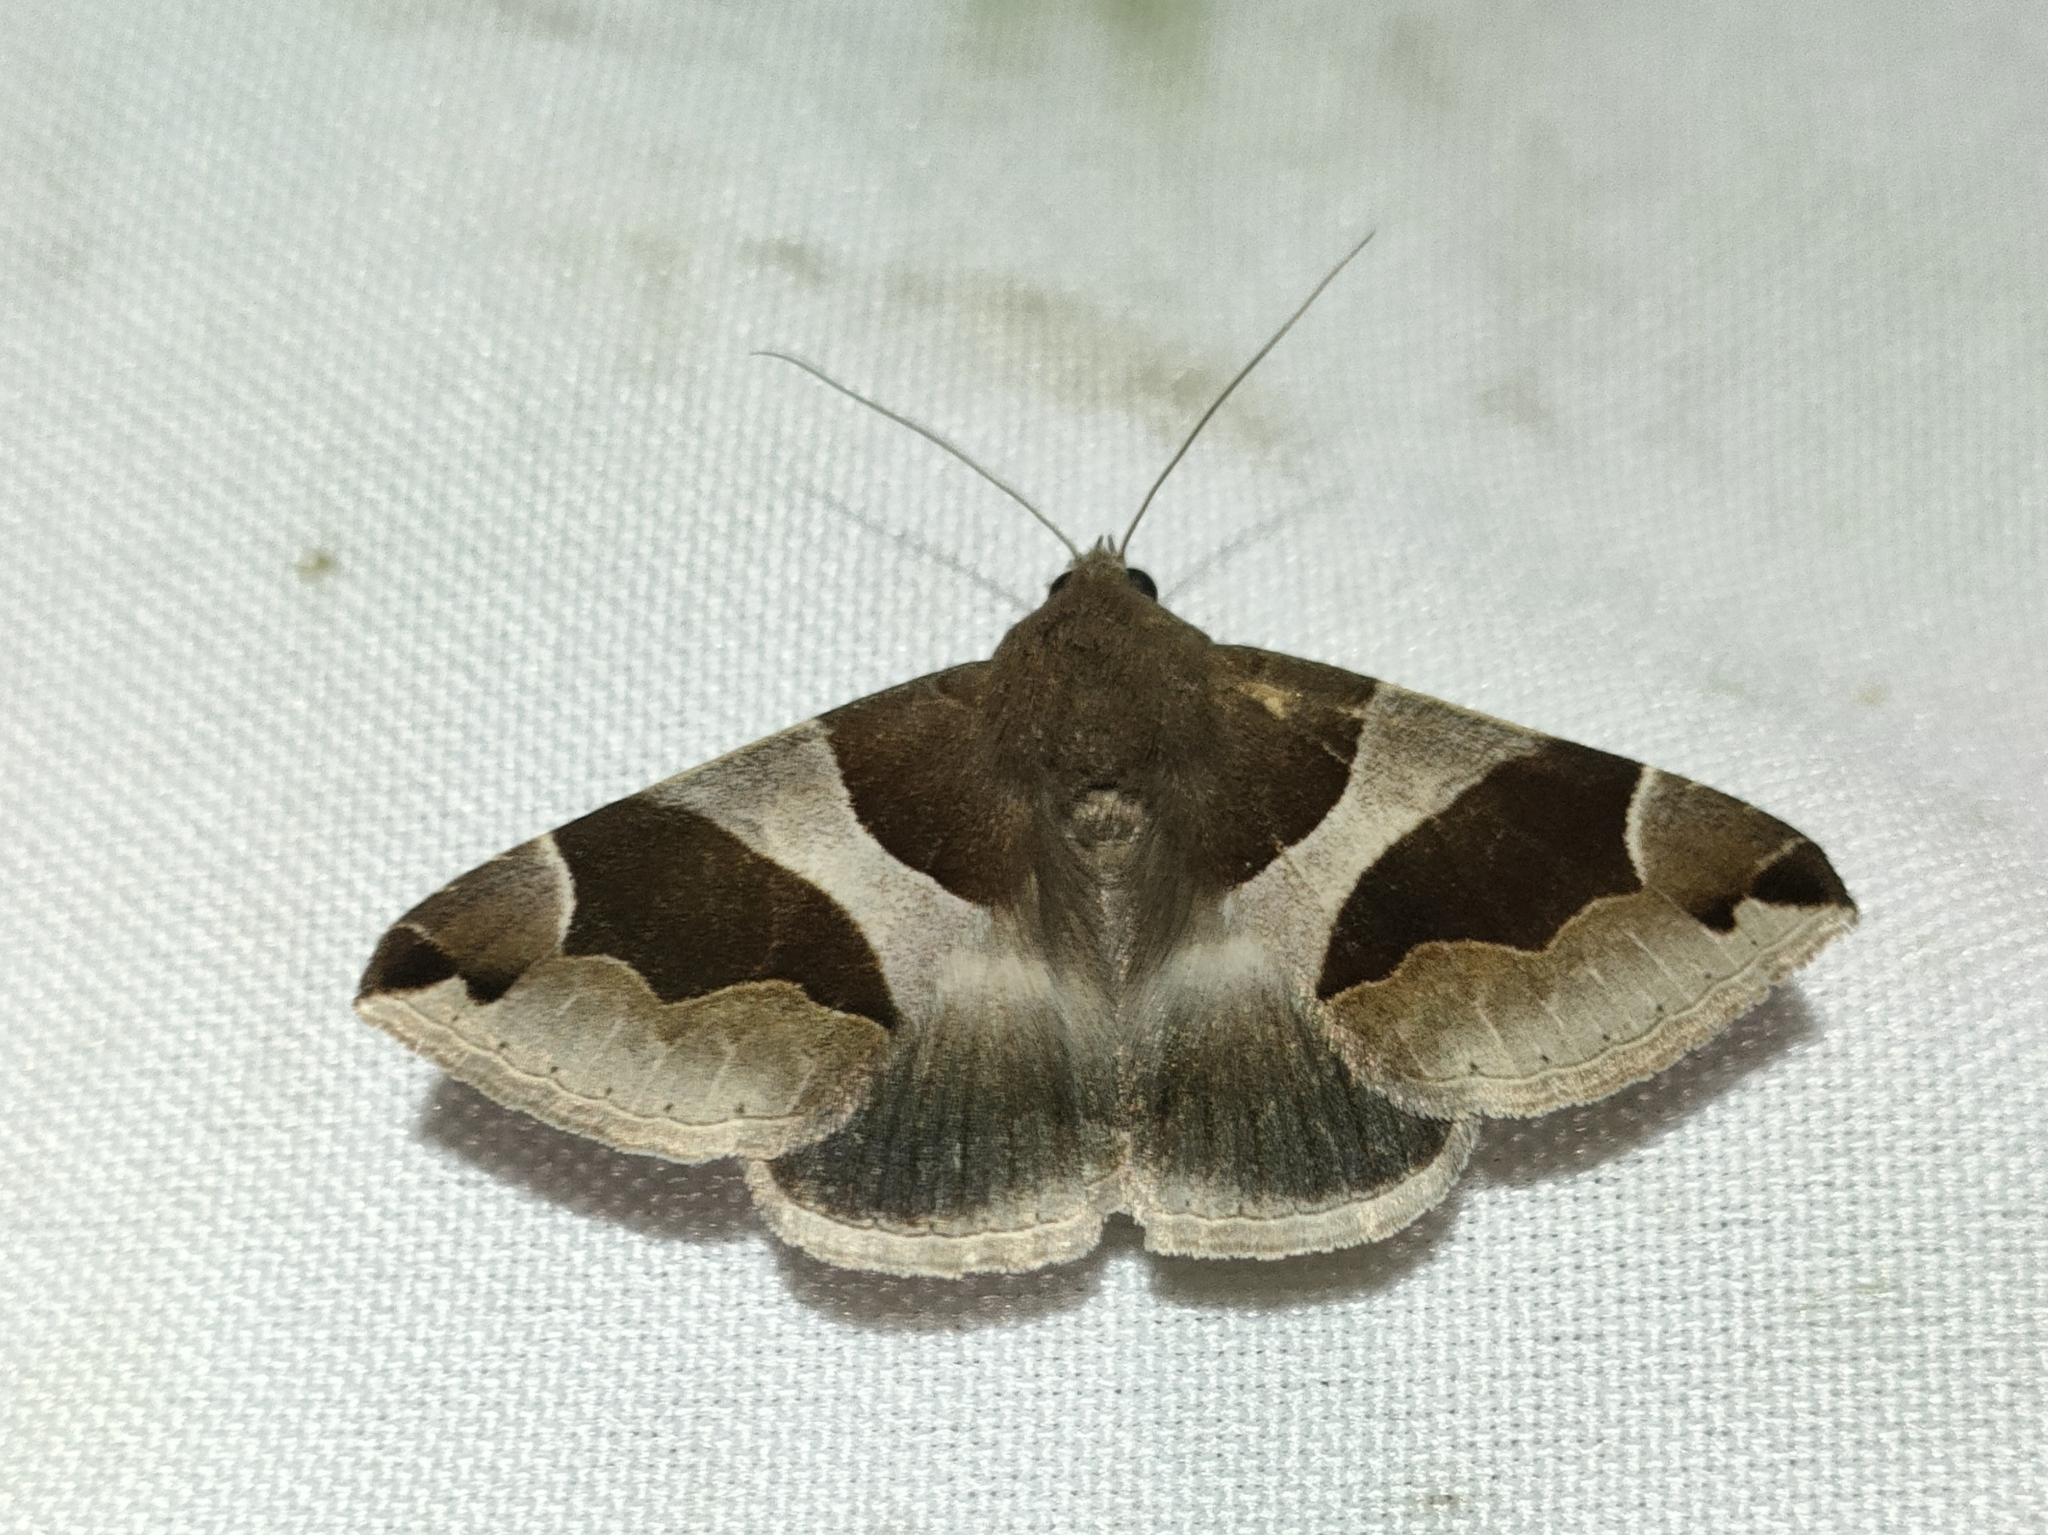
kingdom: Animalia
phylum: Arthropoda
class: Insecta
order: Lepidoptera
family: Erebidae
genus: Dysgonia
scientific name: Dysgonia algira
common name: Passenger
